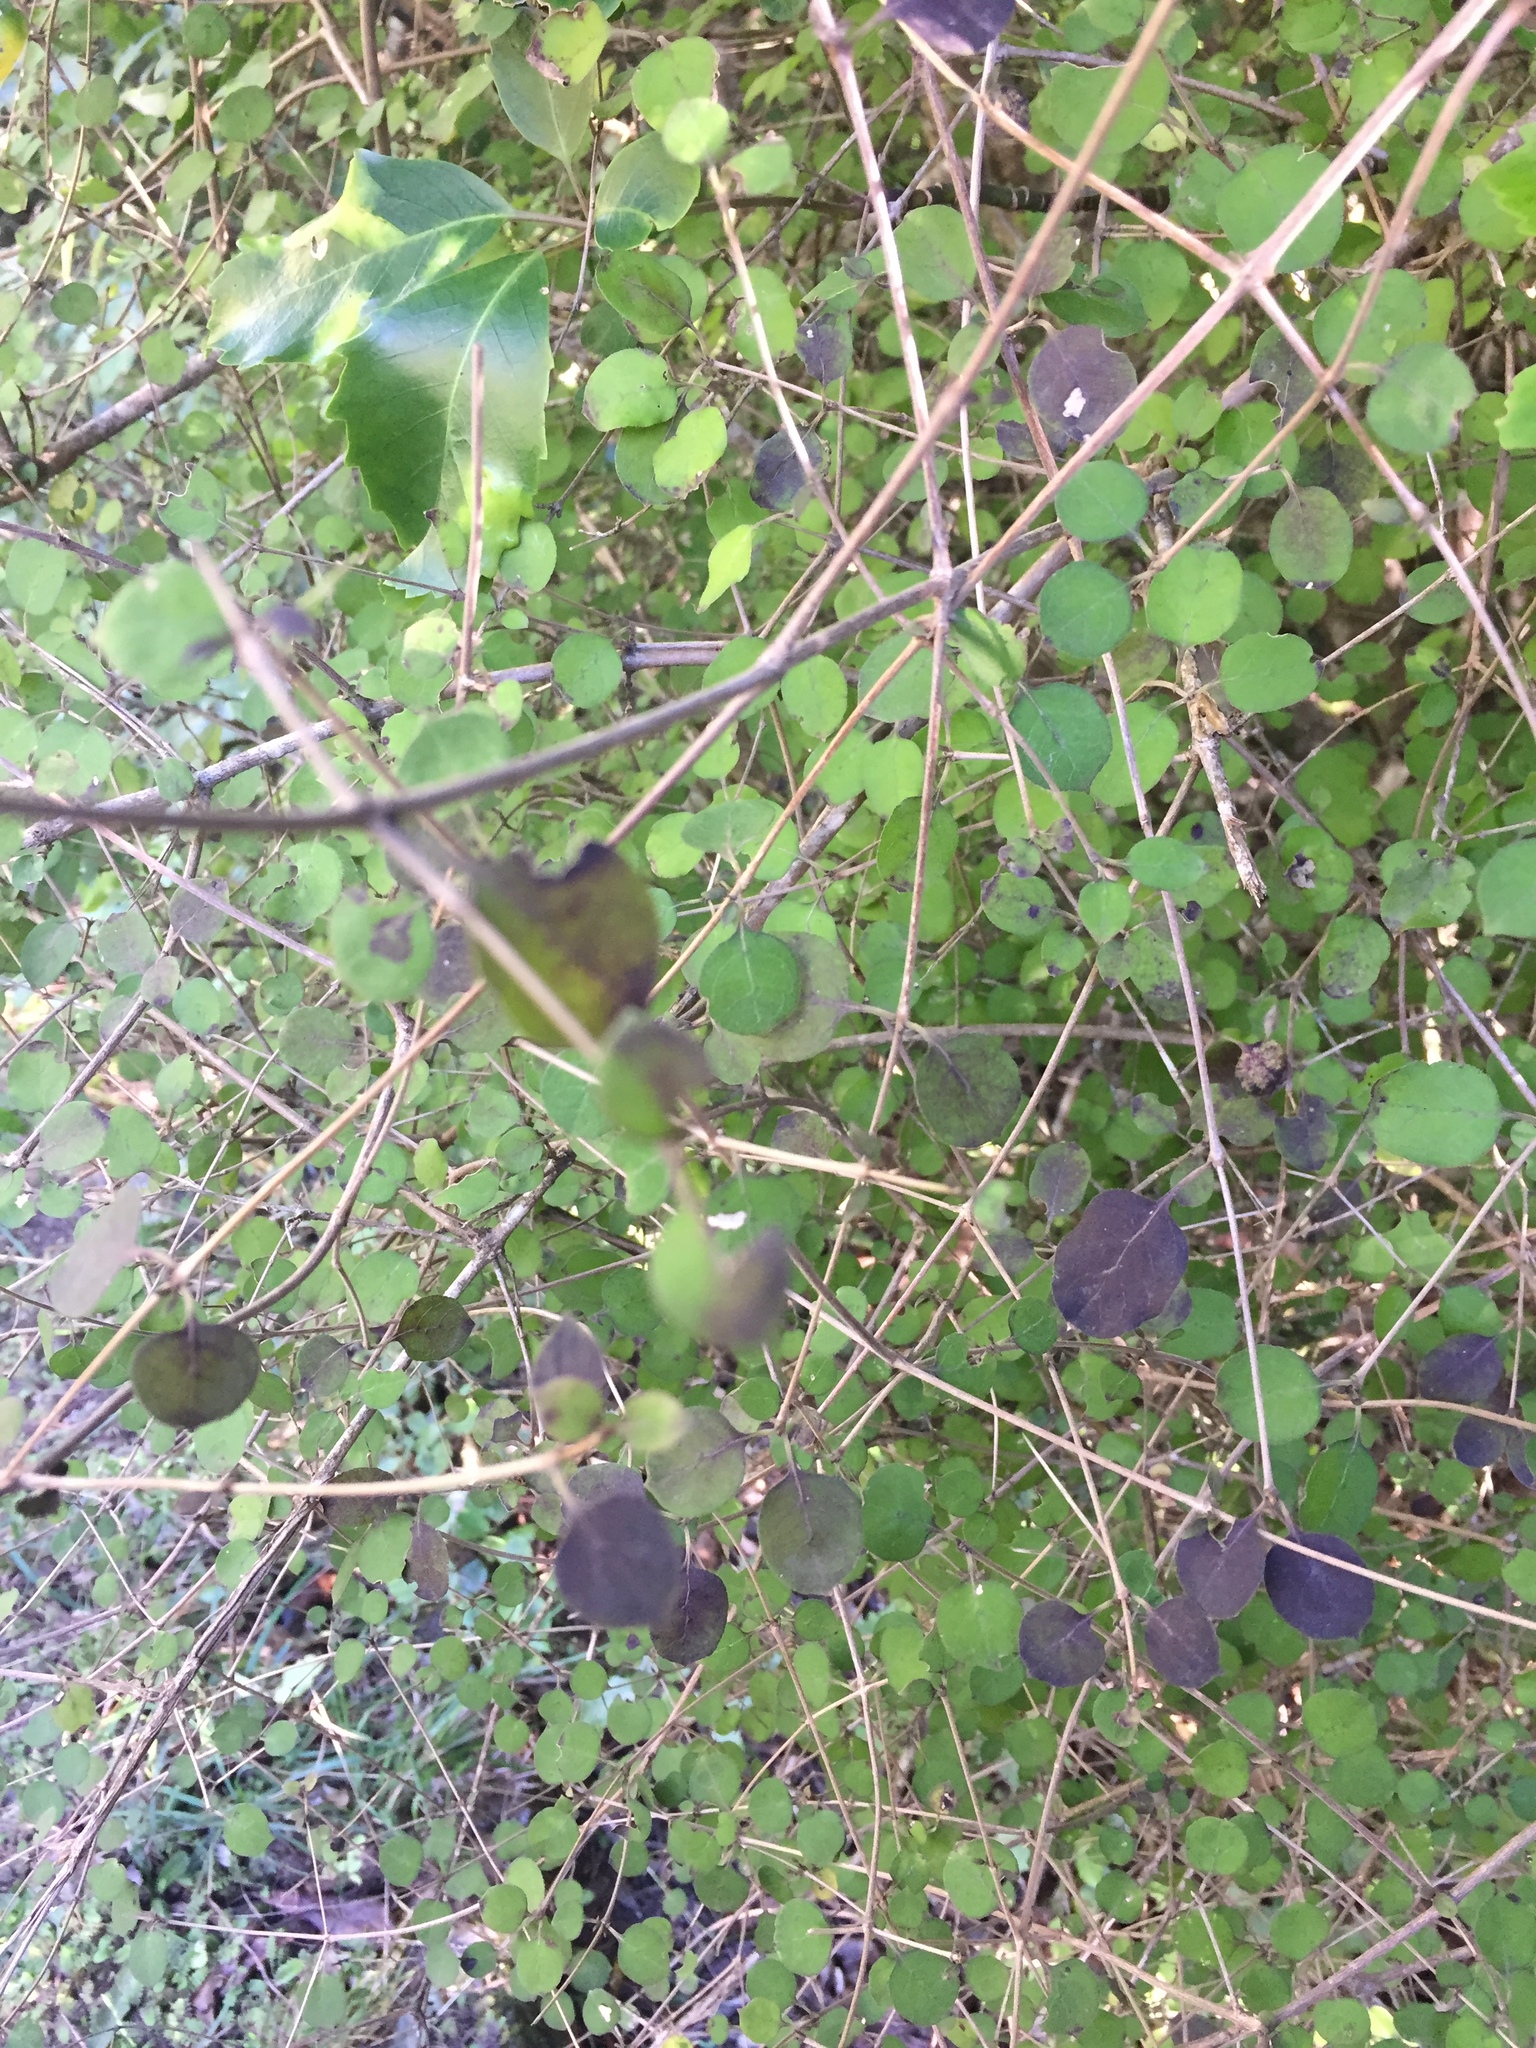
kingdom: Plantae
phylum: Tracheophyta
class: Magnoliopsida
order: Gentianales
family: Rubiaceae
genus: Coprosma
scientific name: Coprosma rotundifolia
